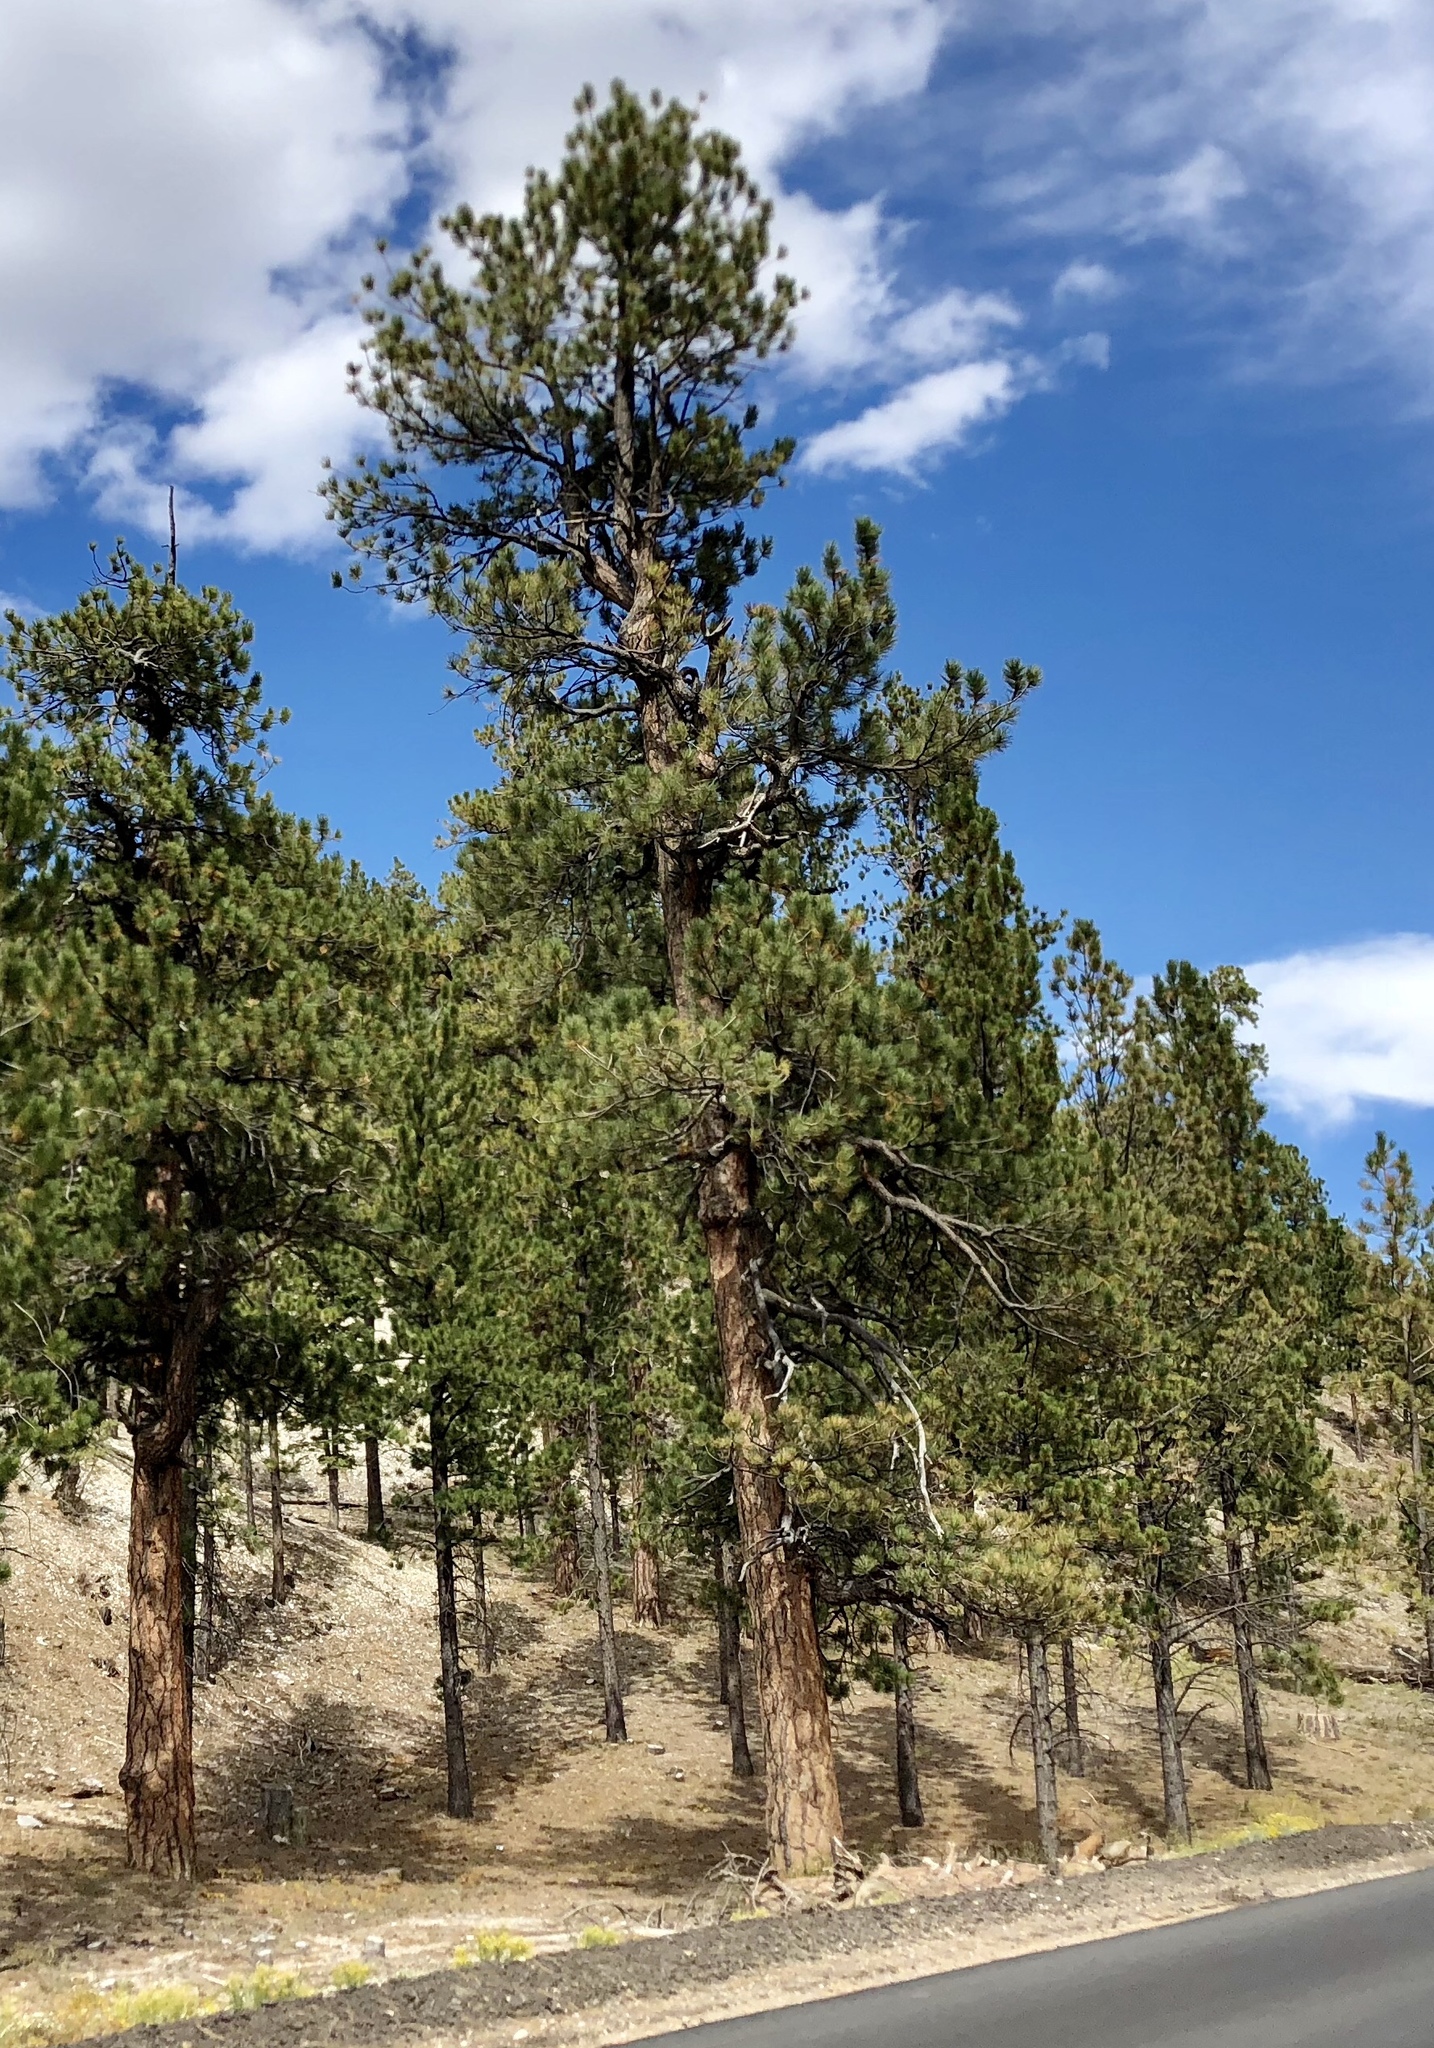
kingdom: Plantae
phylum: Tracheophyta
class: Pinopsida
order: Pinales
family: Pinaceae
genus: Pinus
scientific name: Pinus ponderosa
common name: Western yellow-pine
